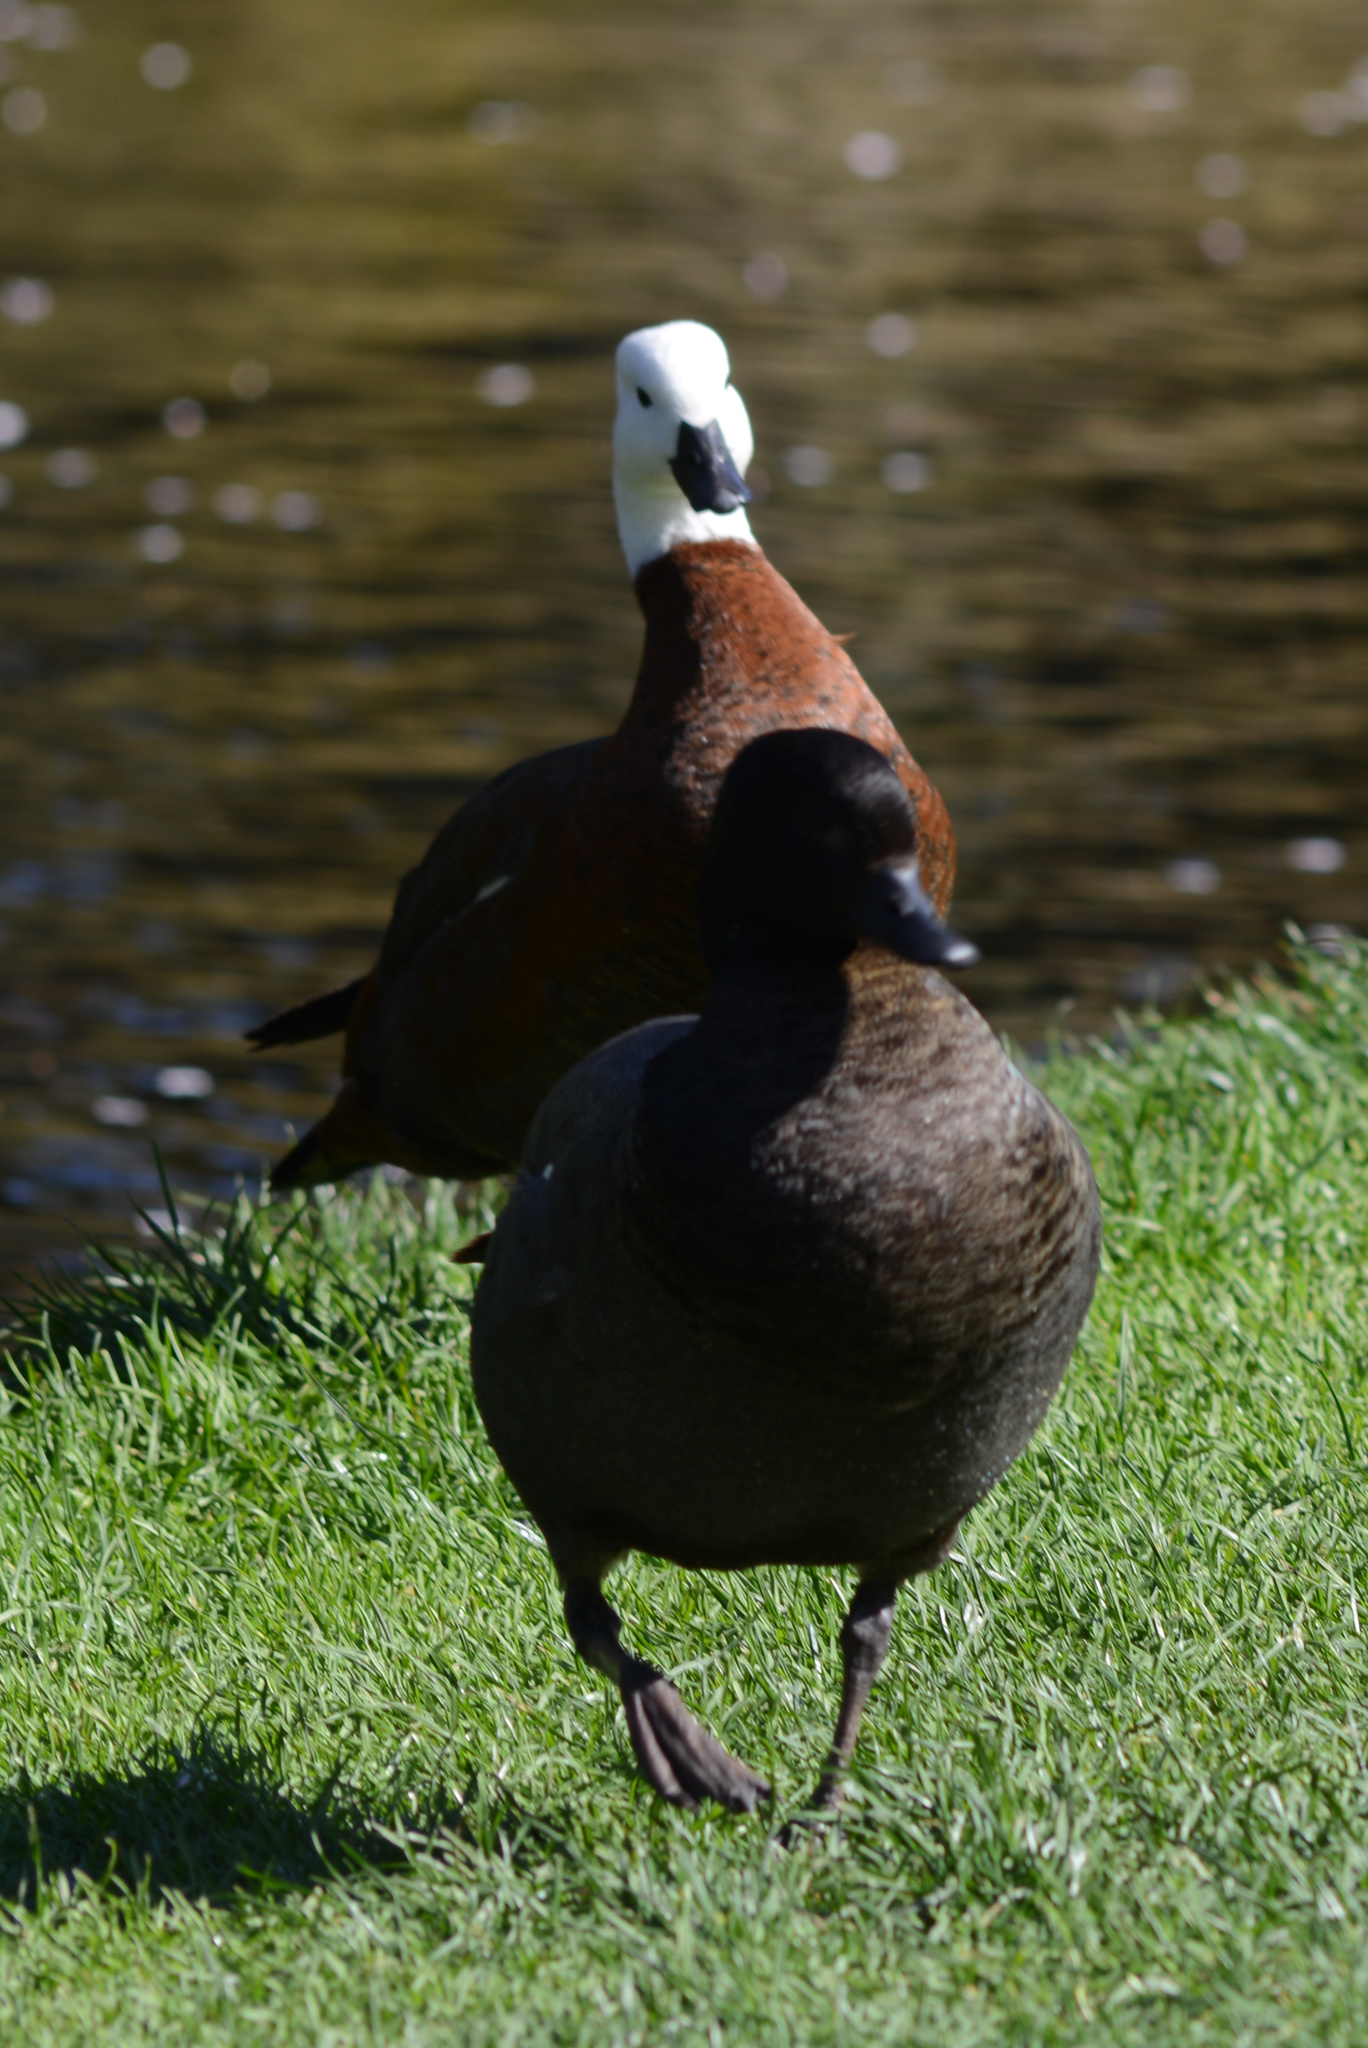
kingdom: Animalia
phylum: Chordata
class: Aves
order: Anseriformes
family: Anatidae
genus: Tadorna
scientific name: Tadorna variegata
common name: Paradise shelduck
